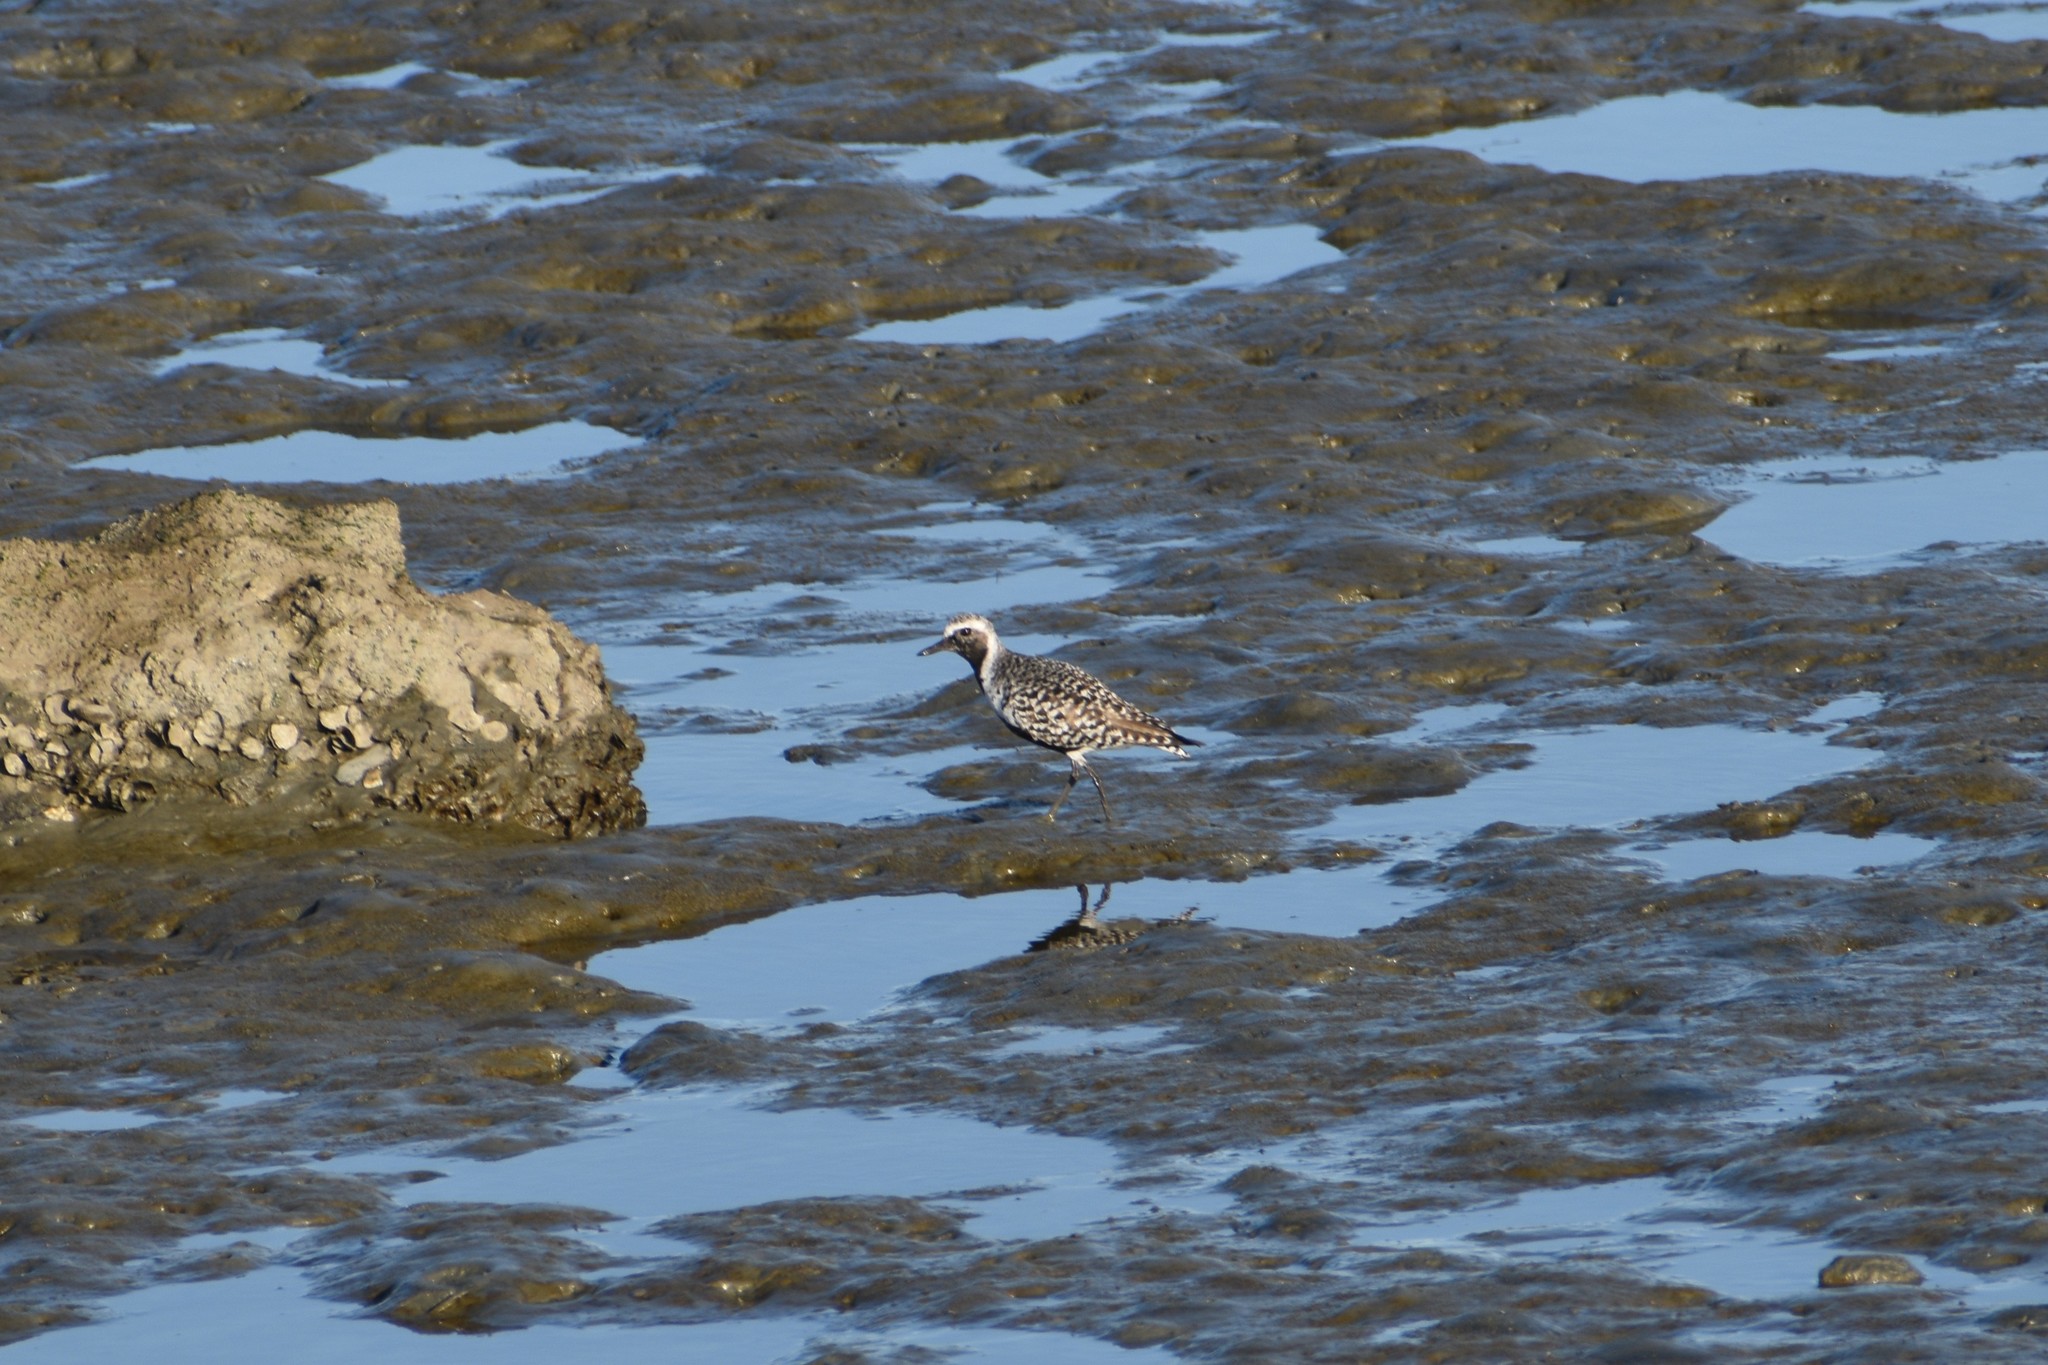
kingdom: Animalia
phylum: Chordata
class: Aves
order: Charadriiformes
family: Charadriidae
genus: Pluvialis
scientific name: Pluvialis squatarola
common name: Grey plover
